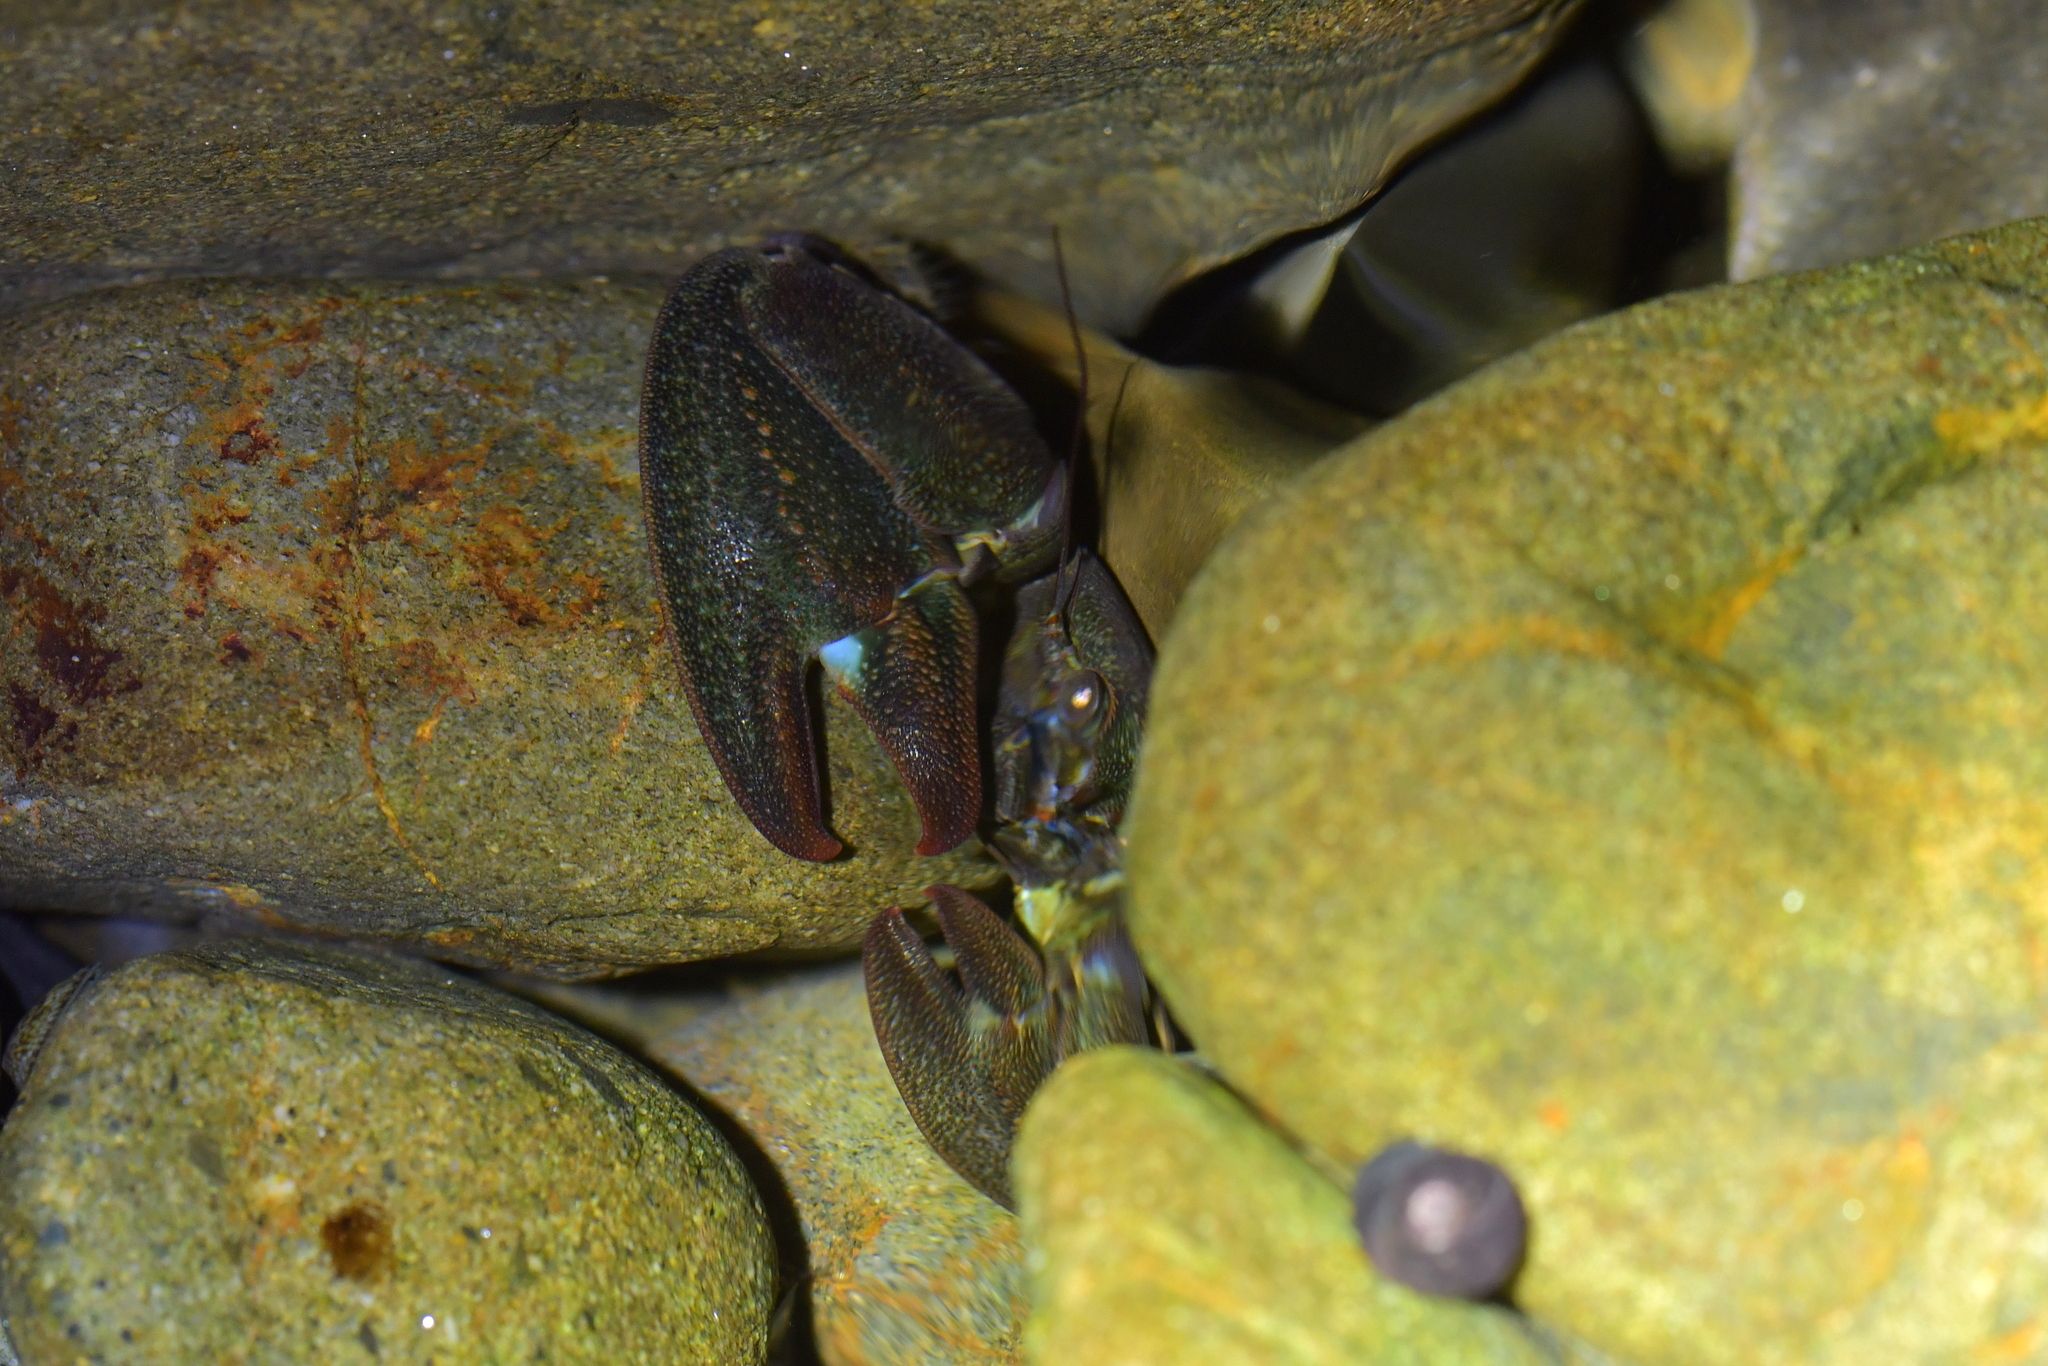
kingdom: Animalia
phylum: Arthropoda
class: Malacostraca
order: Decapoda
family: Porcellanidae
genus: Petrolisthes
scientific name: Petrolisthes elongatus
